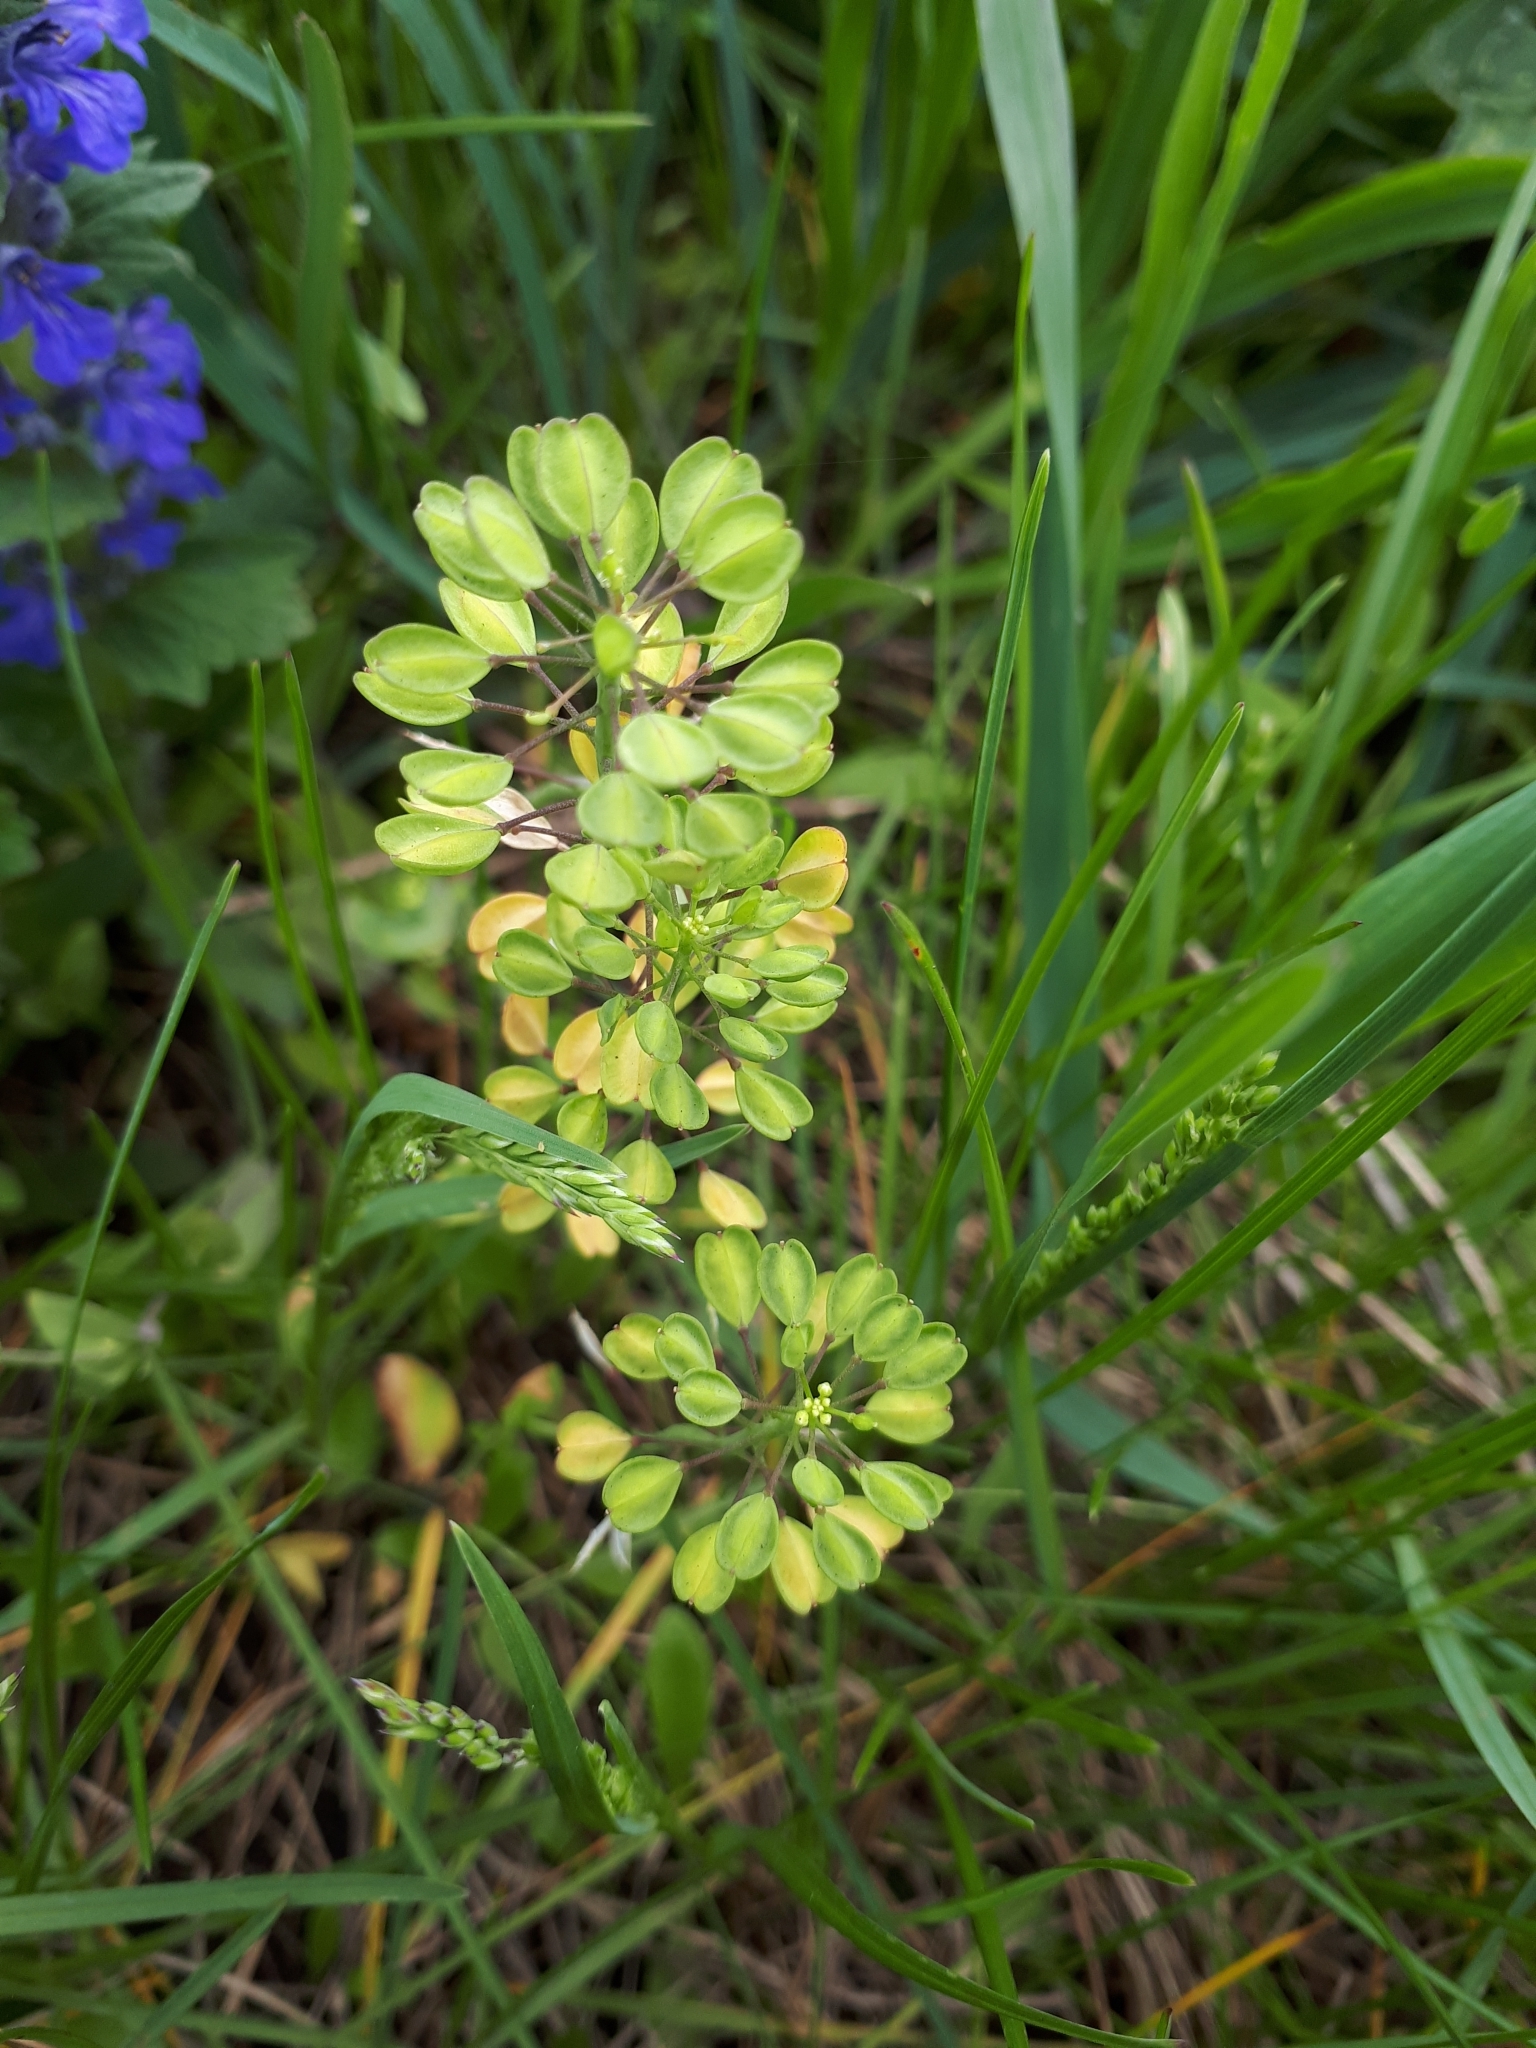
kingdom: Plantae
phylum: Tracheophyta
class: Magnoliopsida
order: Brassicales
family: Brassicaceae
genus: Noccaea
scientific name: Noccaea perfoliata
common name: Perfoliate pennycress
